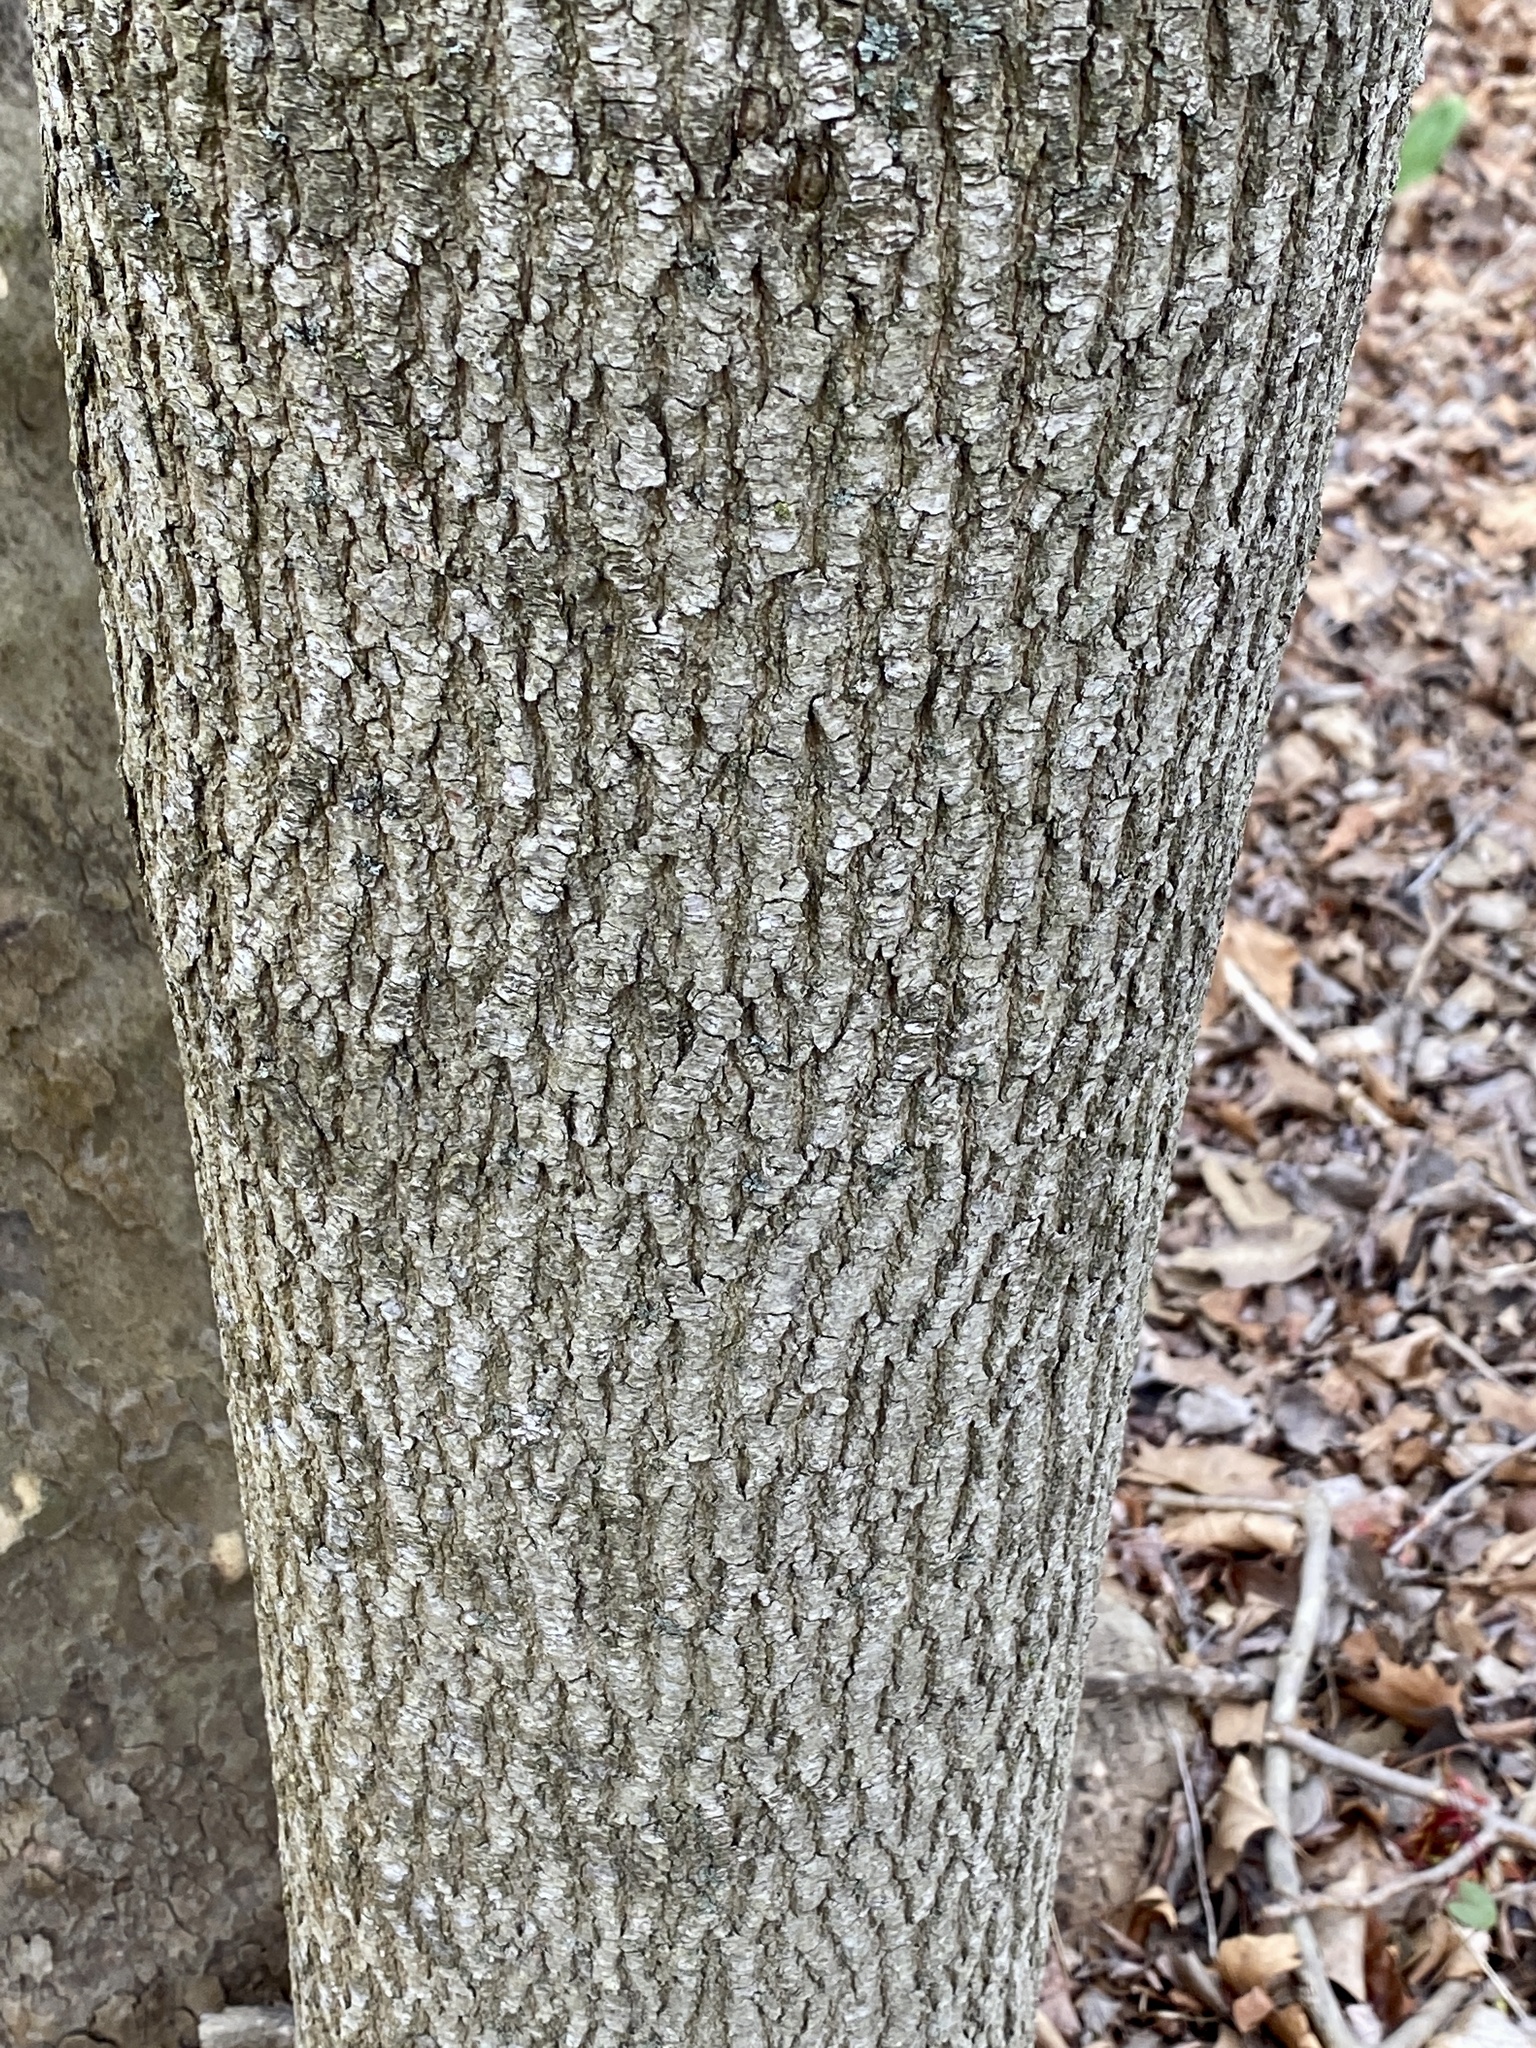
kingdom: Plantae
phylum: Tracheophyta
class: Magnoliopsida
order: Sapindales
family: Sapindaceae
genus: Acer
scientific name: Acer platanoides
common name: Norway maple
